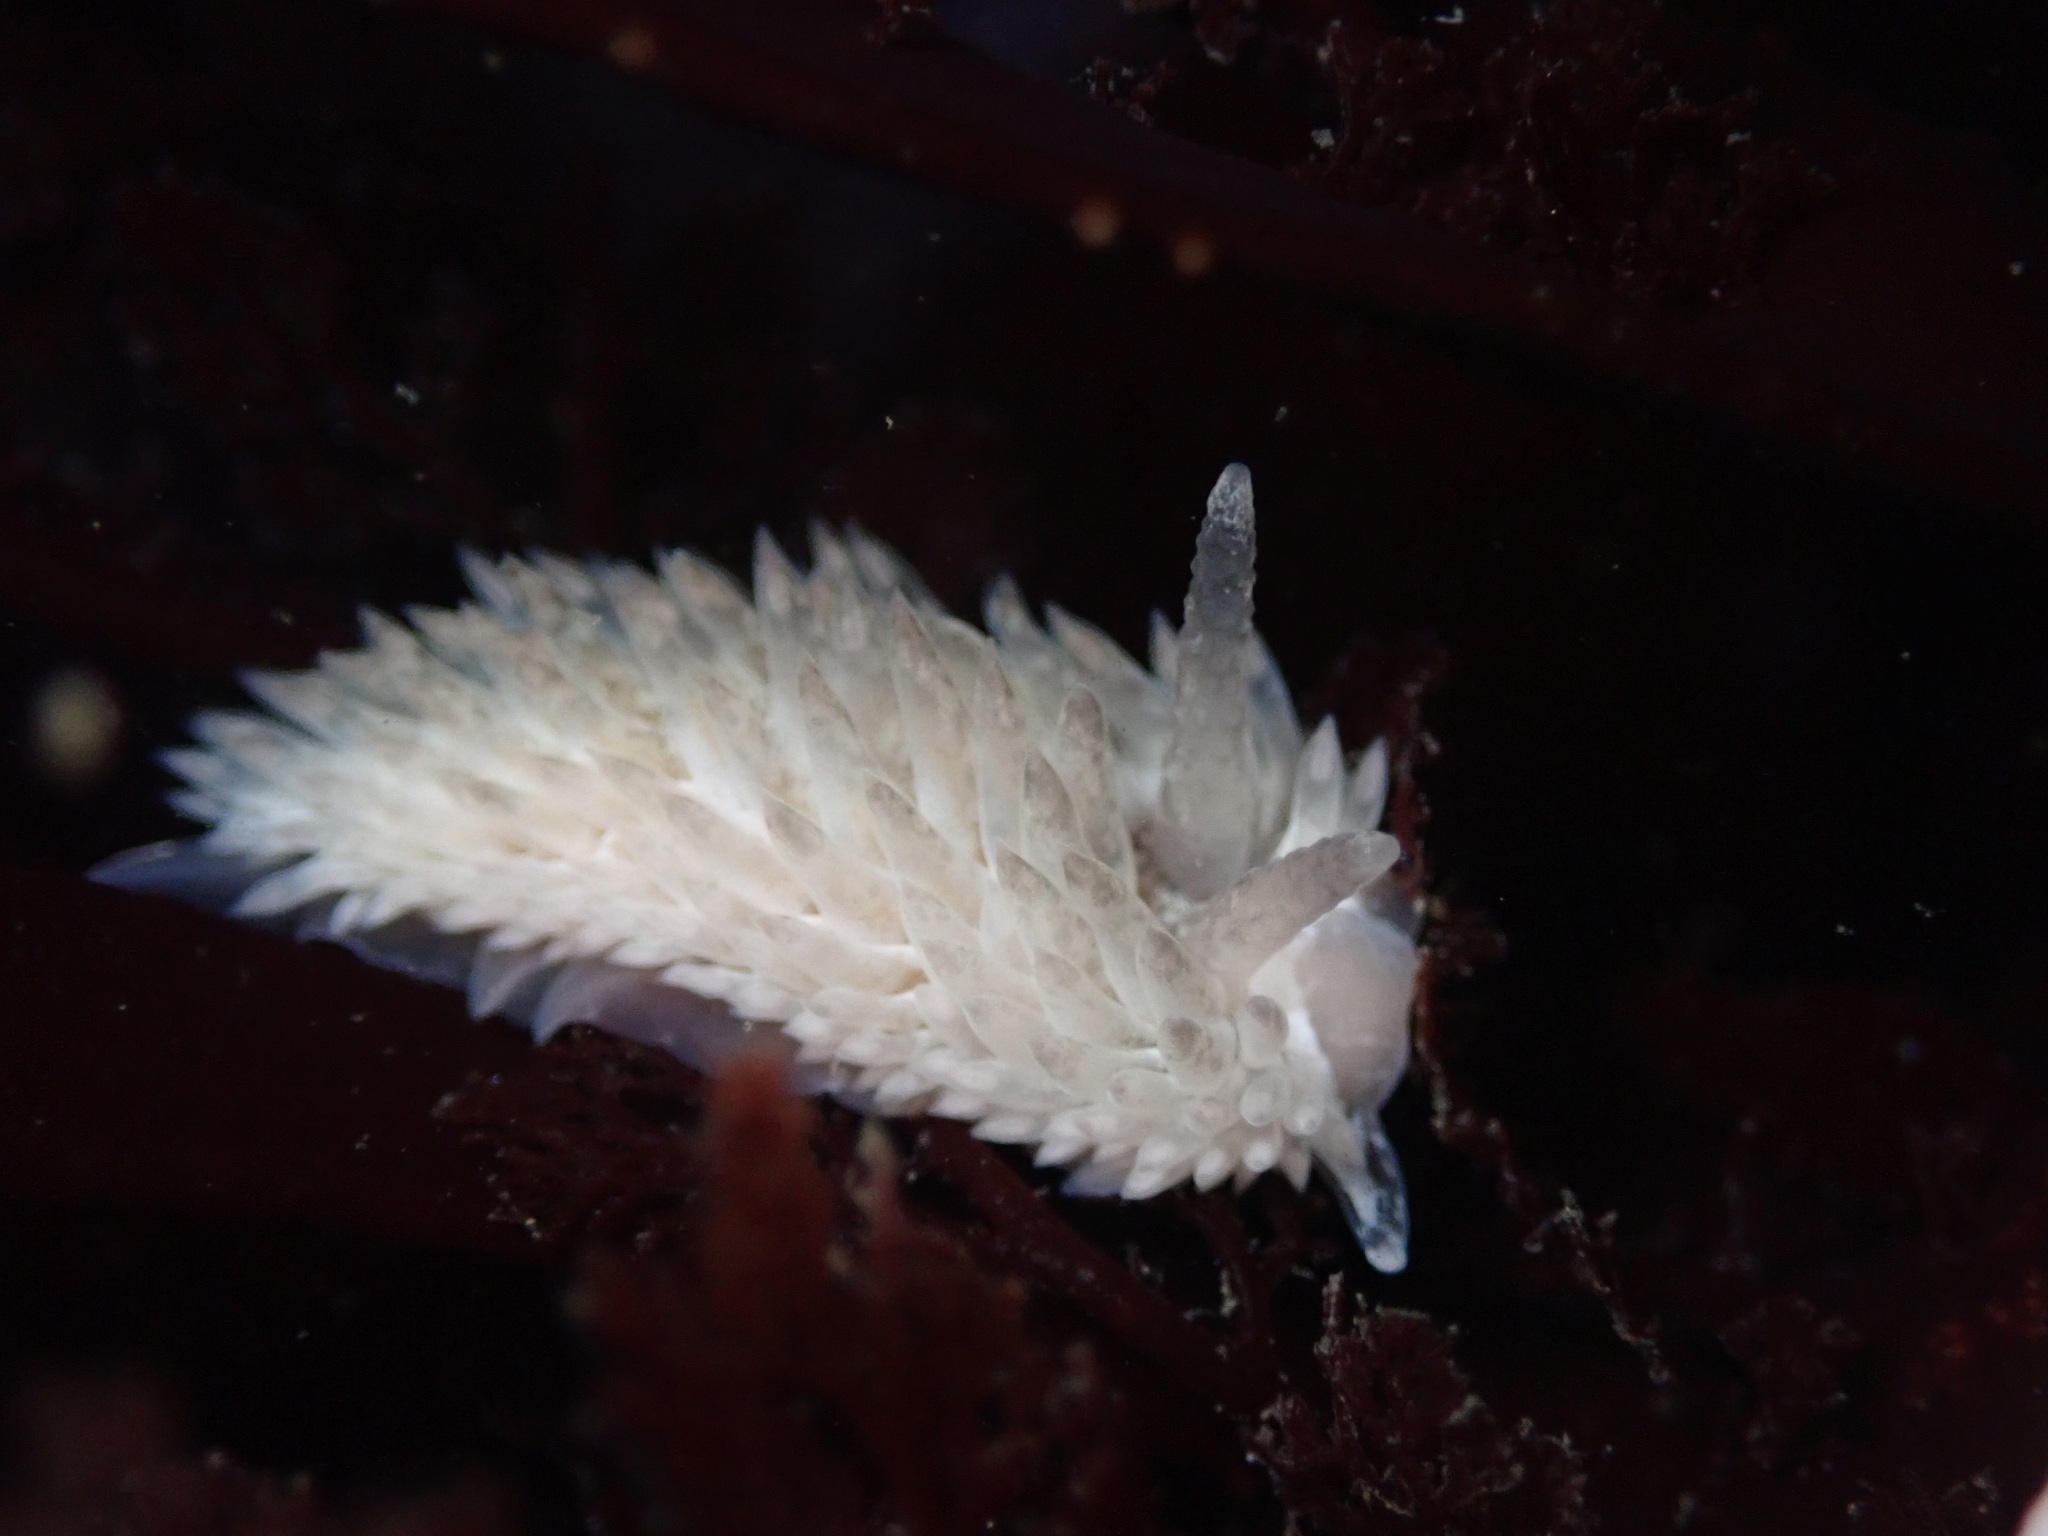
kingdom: Animalia
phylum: Mollusca
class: Gastropoda
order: Nudibranchia
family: Aeolidiidae
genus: Aeolidia
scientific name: Aeolidia loui
